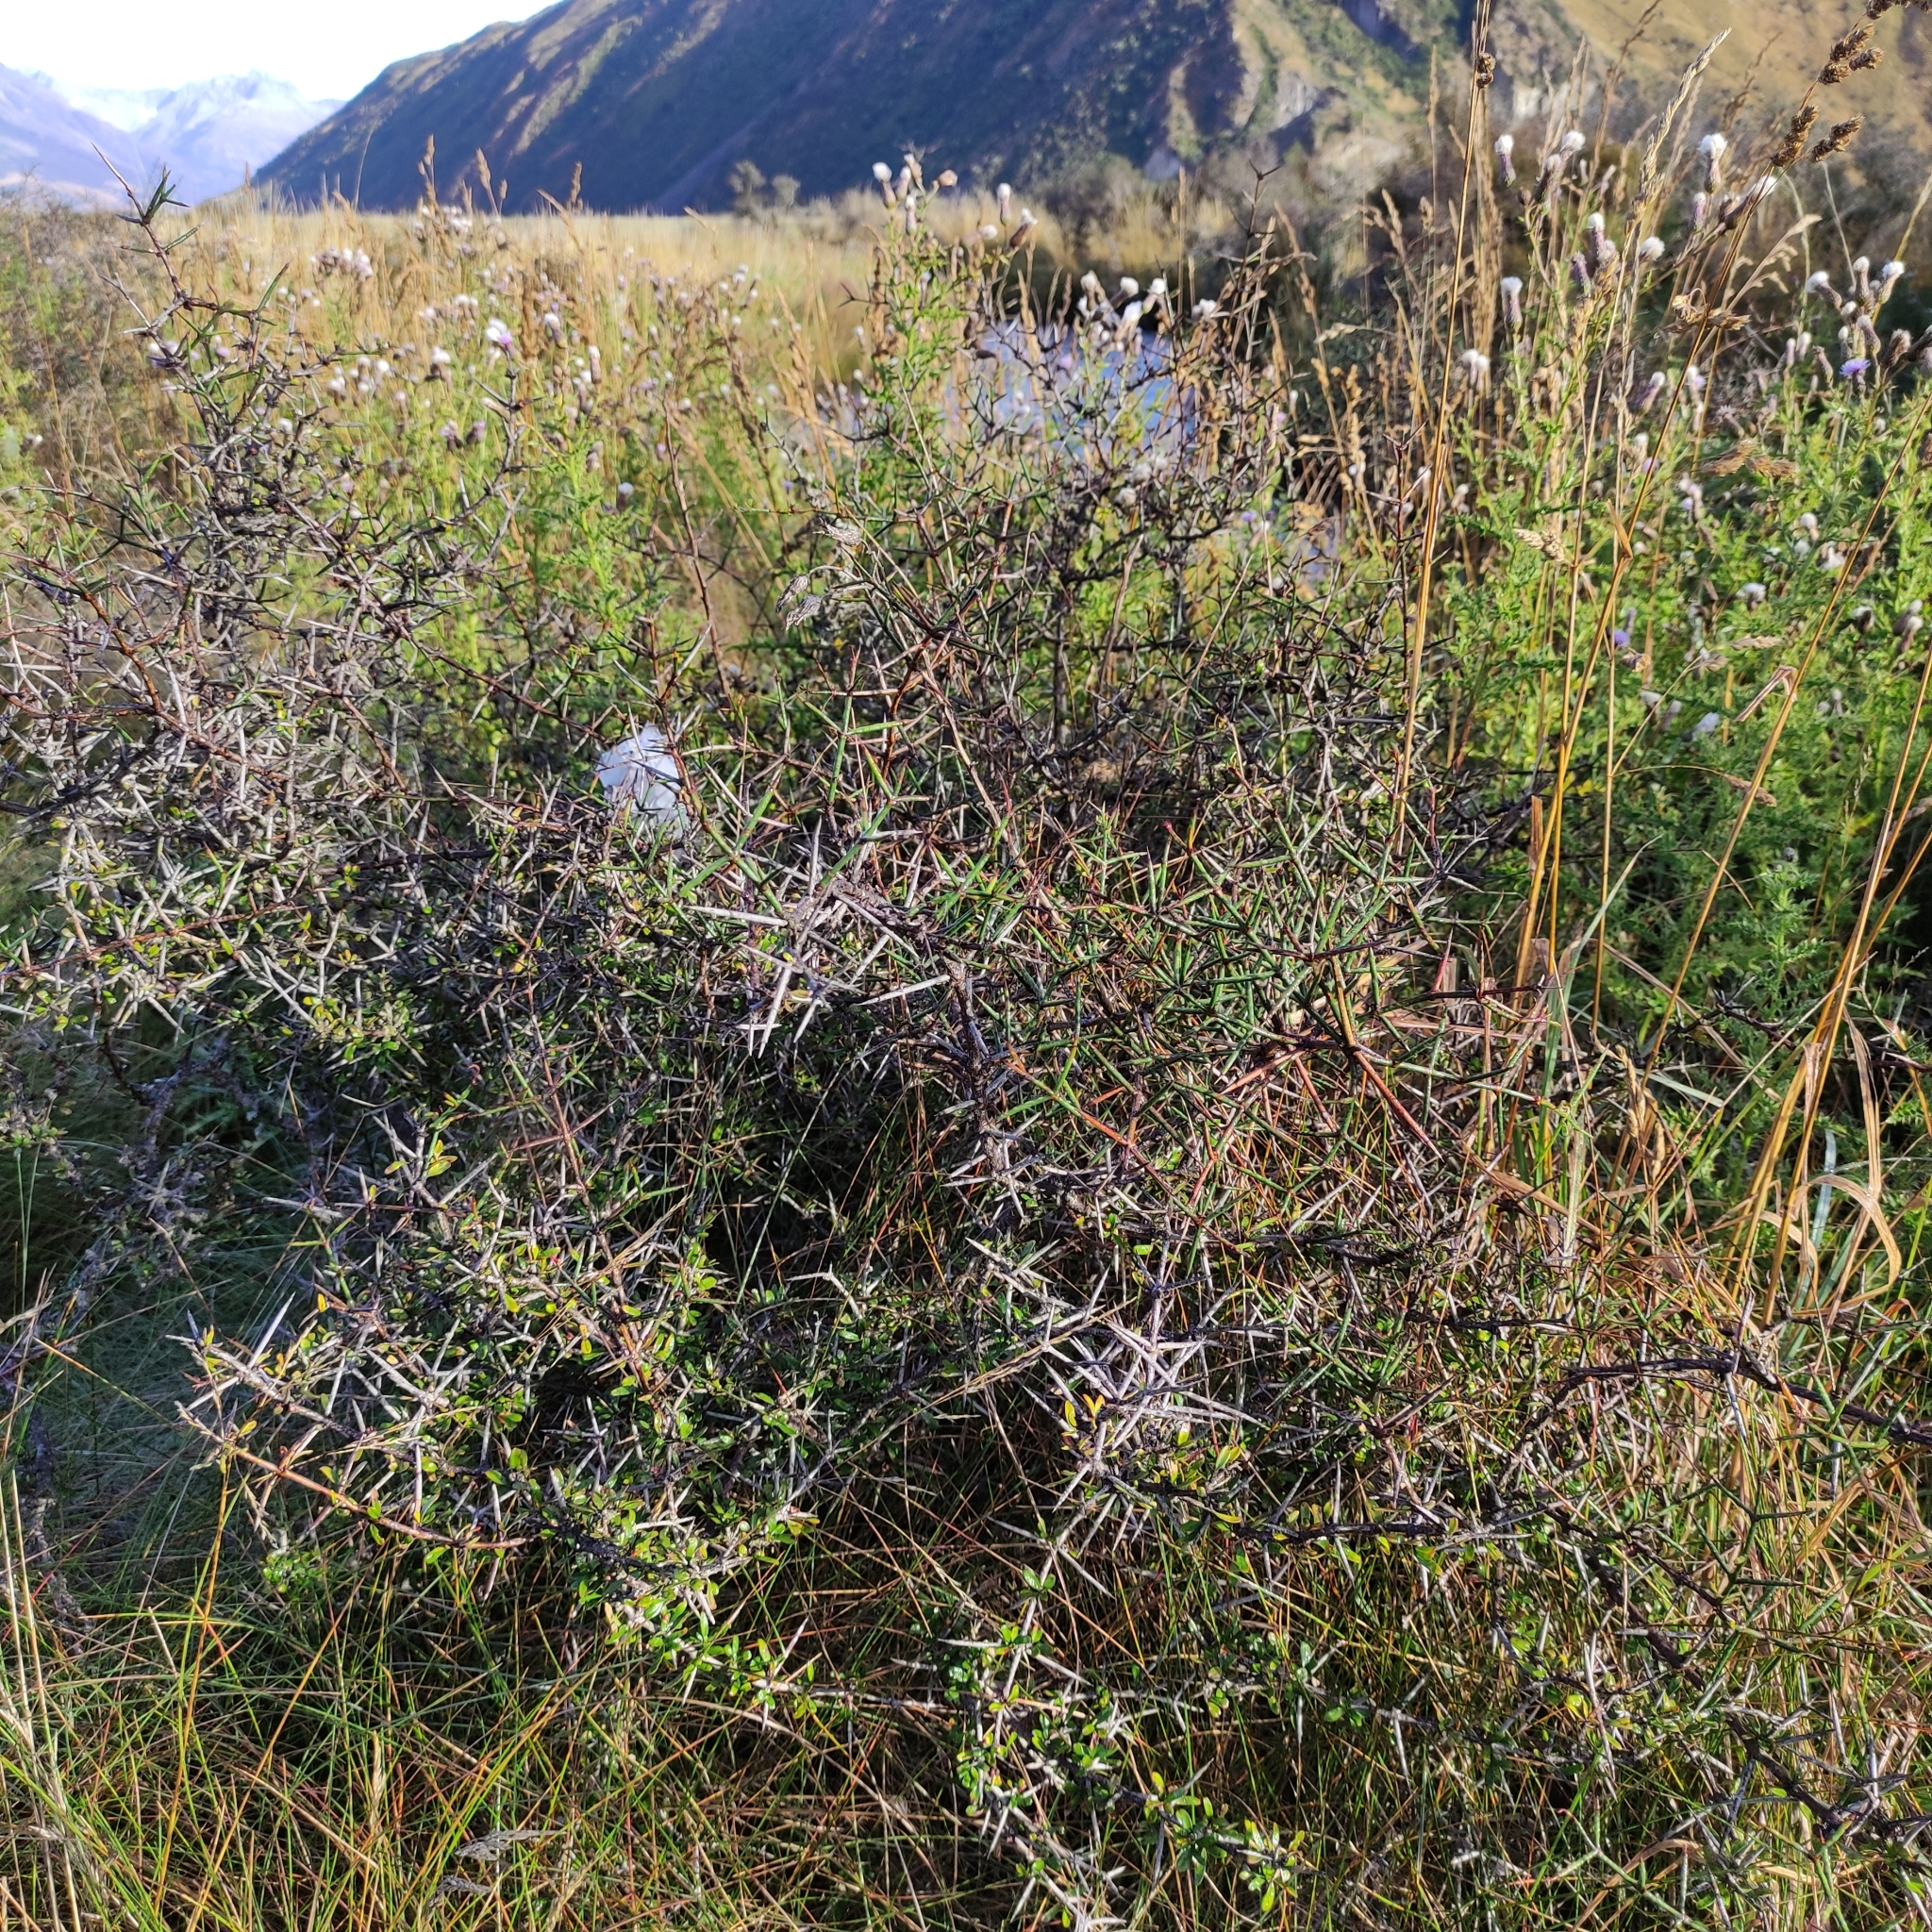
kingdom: Plantae
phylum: Tracheophyta
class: Magnoliopsida
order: Rosales
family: Rhamnaceae
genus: Discaria
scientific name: Discaria toumatou
